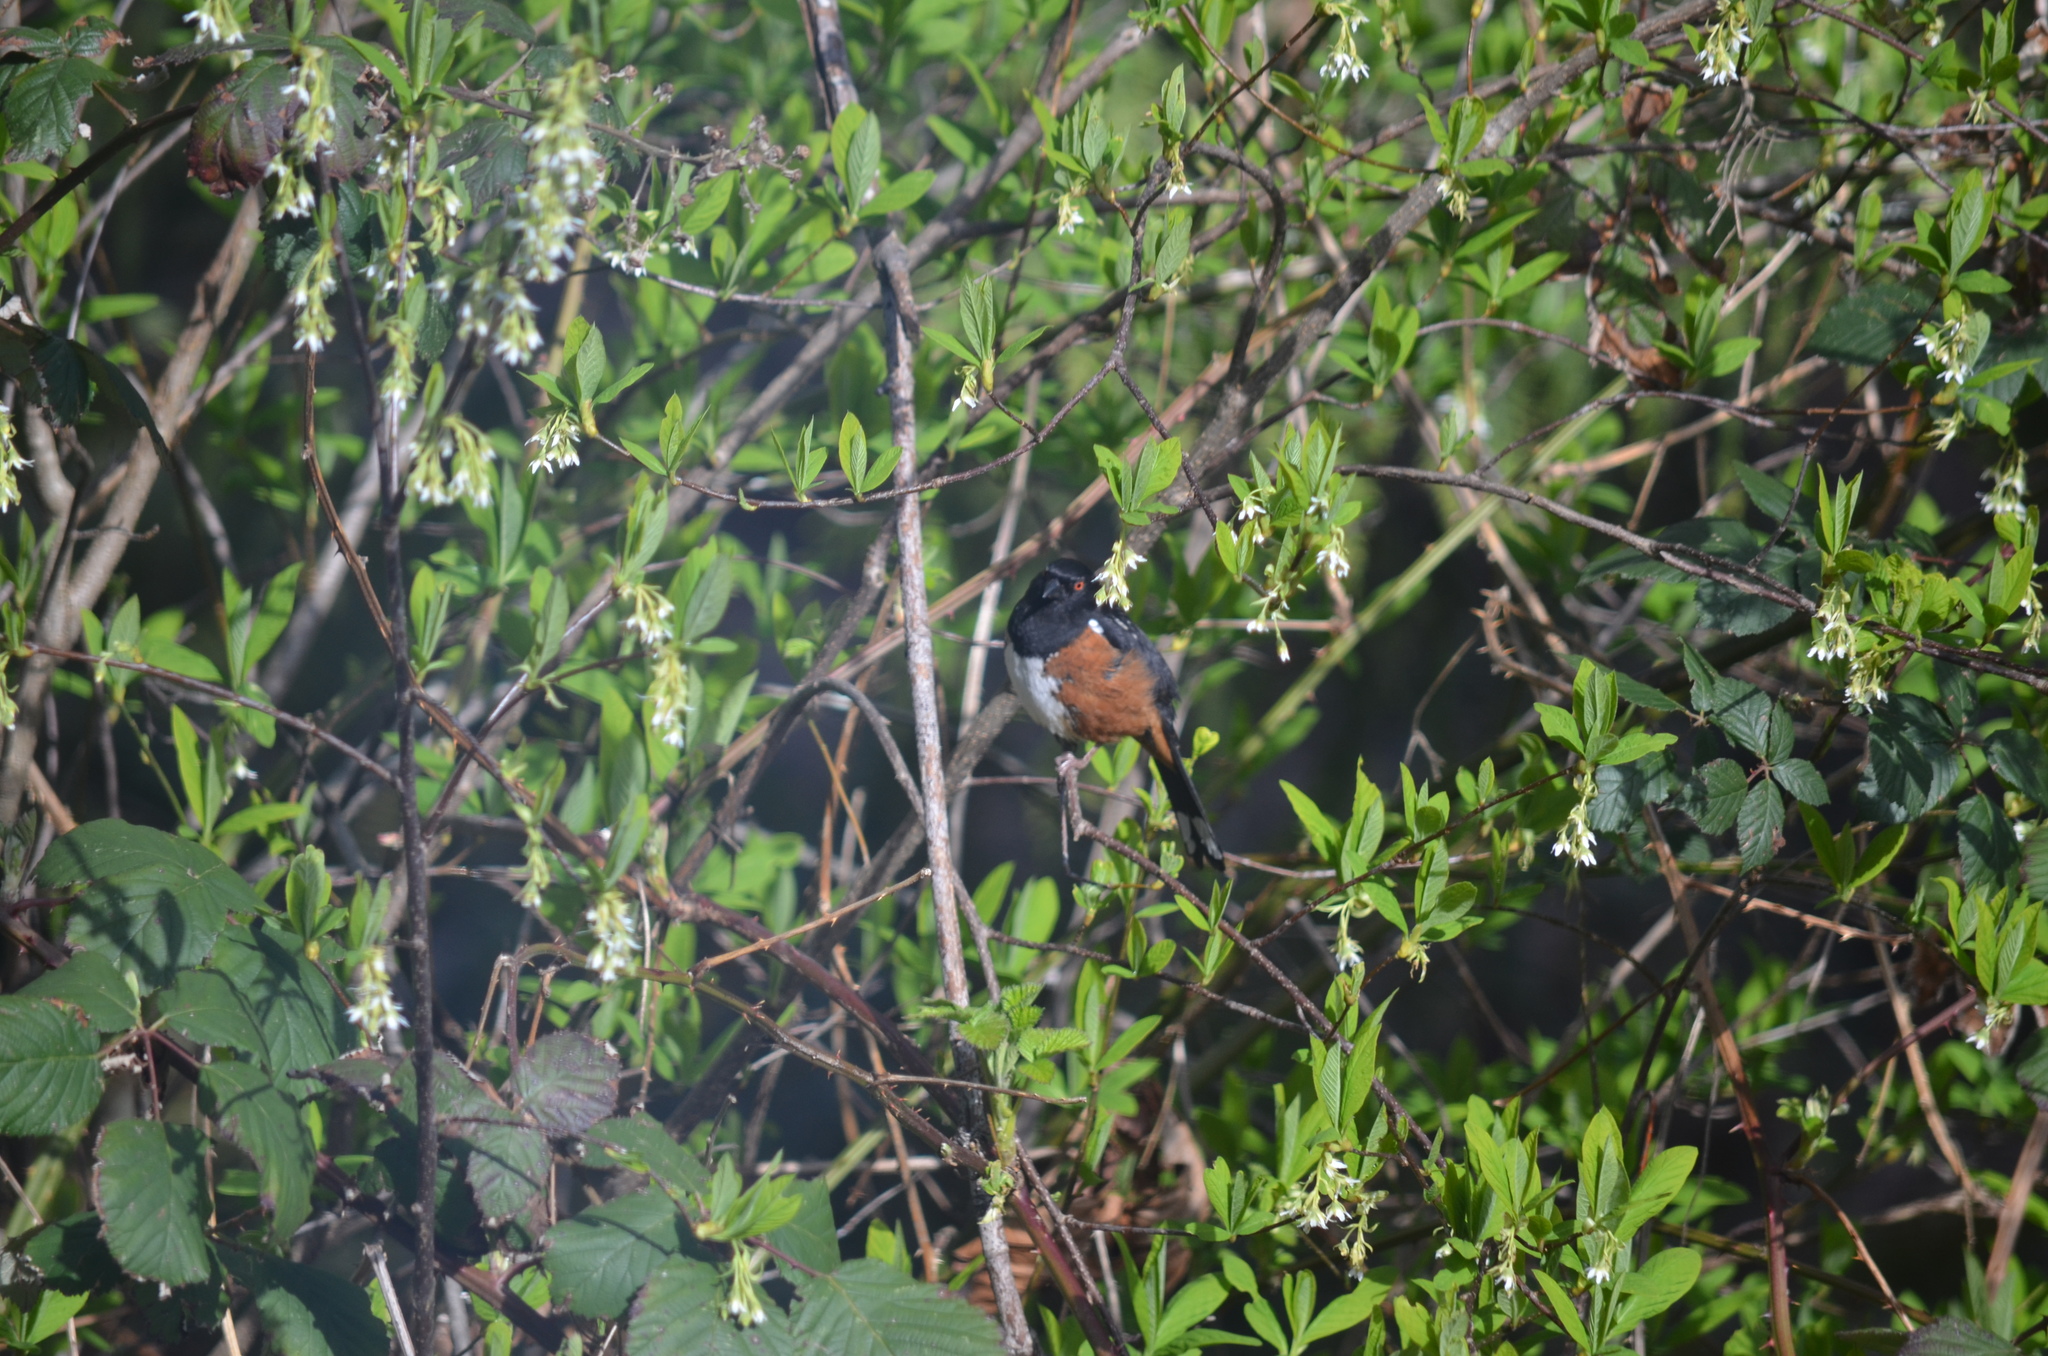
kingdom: Animalia
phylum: Chordata
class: Aves
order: Passeriformes
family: Passerellidae
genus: Pipilo
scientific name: Pipilo maculatus
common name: Spotted towhee
